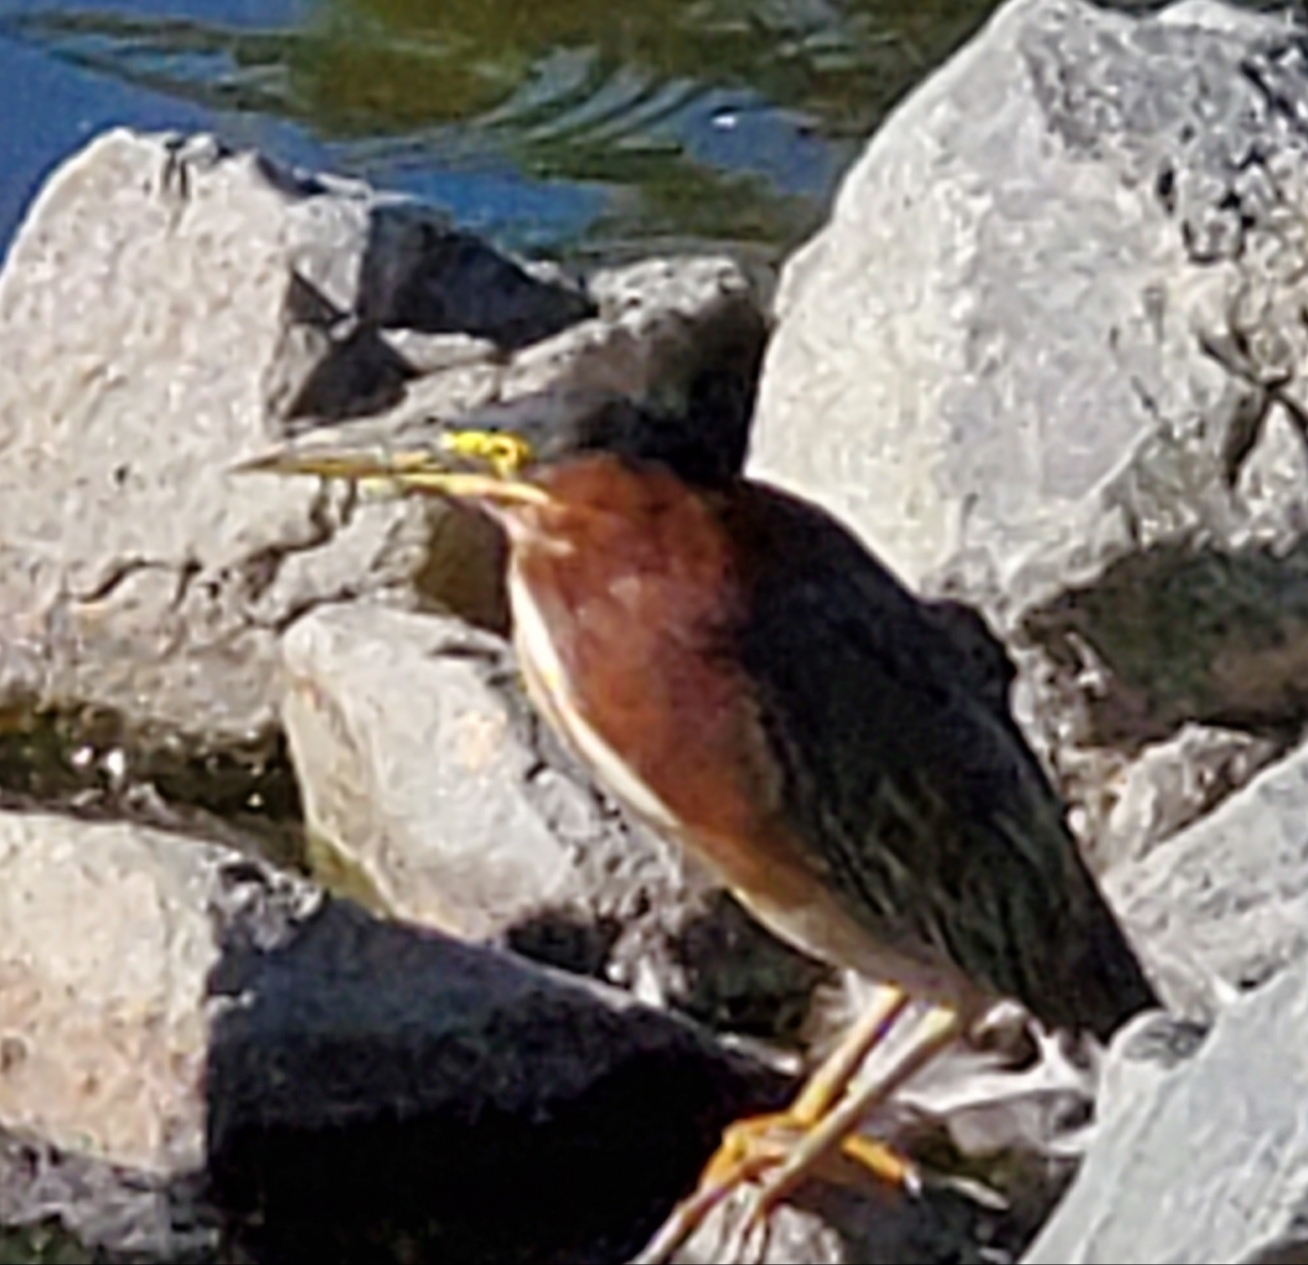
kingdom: Animalia
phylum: Chordata
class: Aves
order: Pelecaniformes
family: Ardeidae
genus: Butorides
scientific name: Butorides virescens
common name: Green heron
